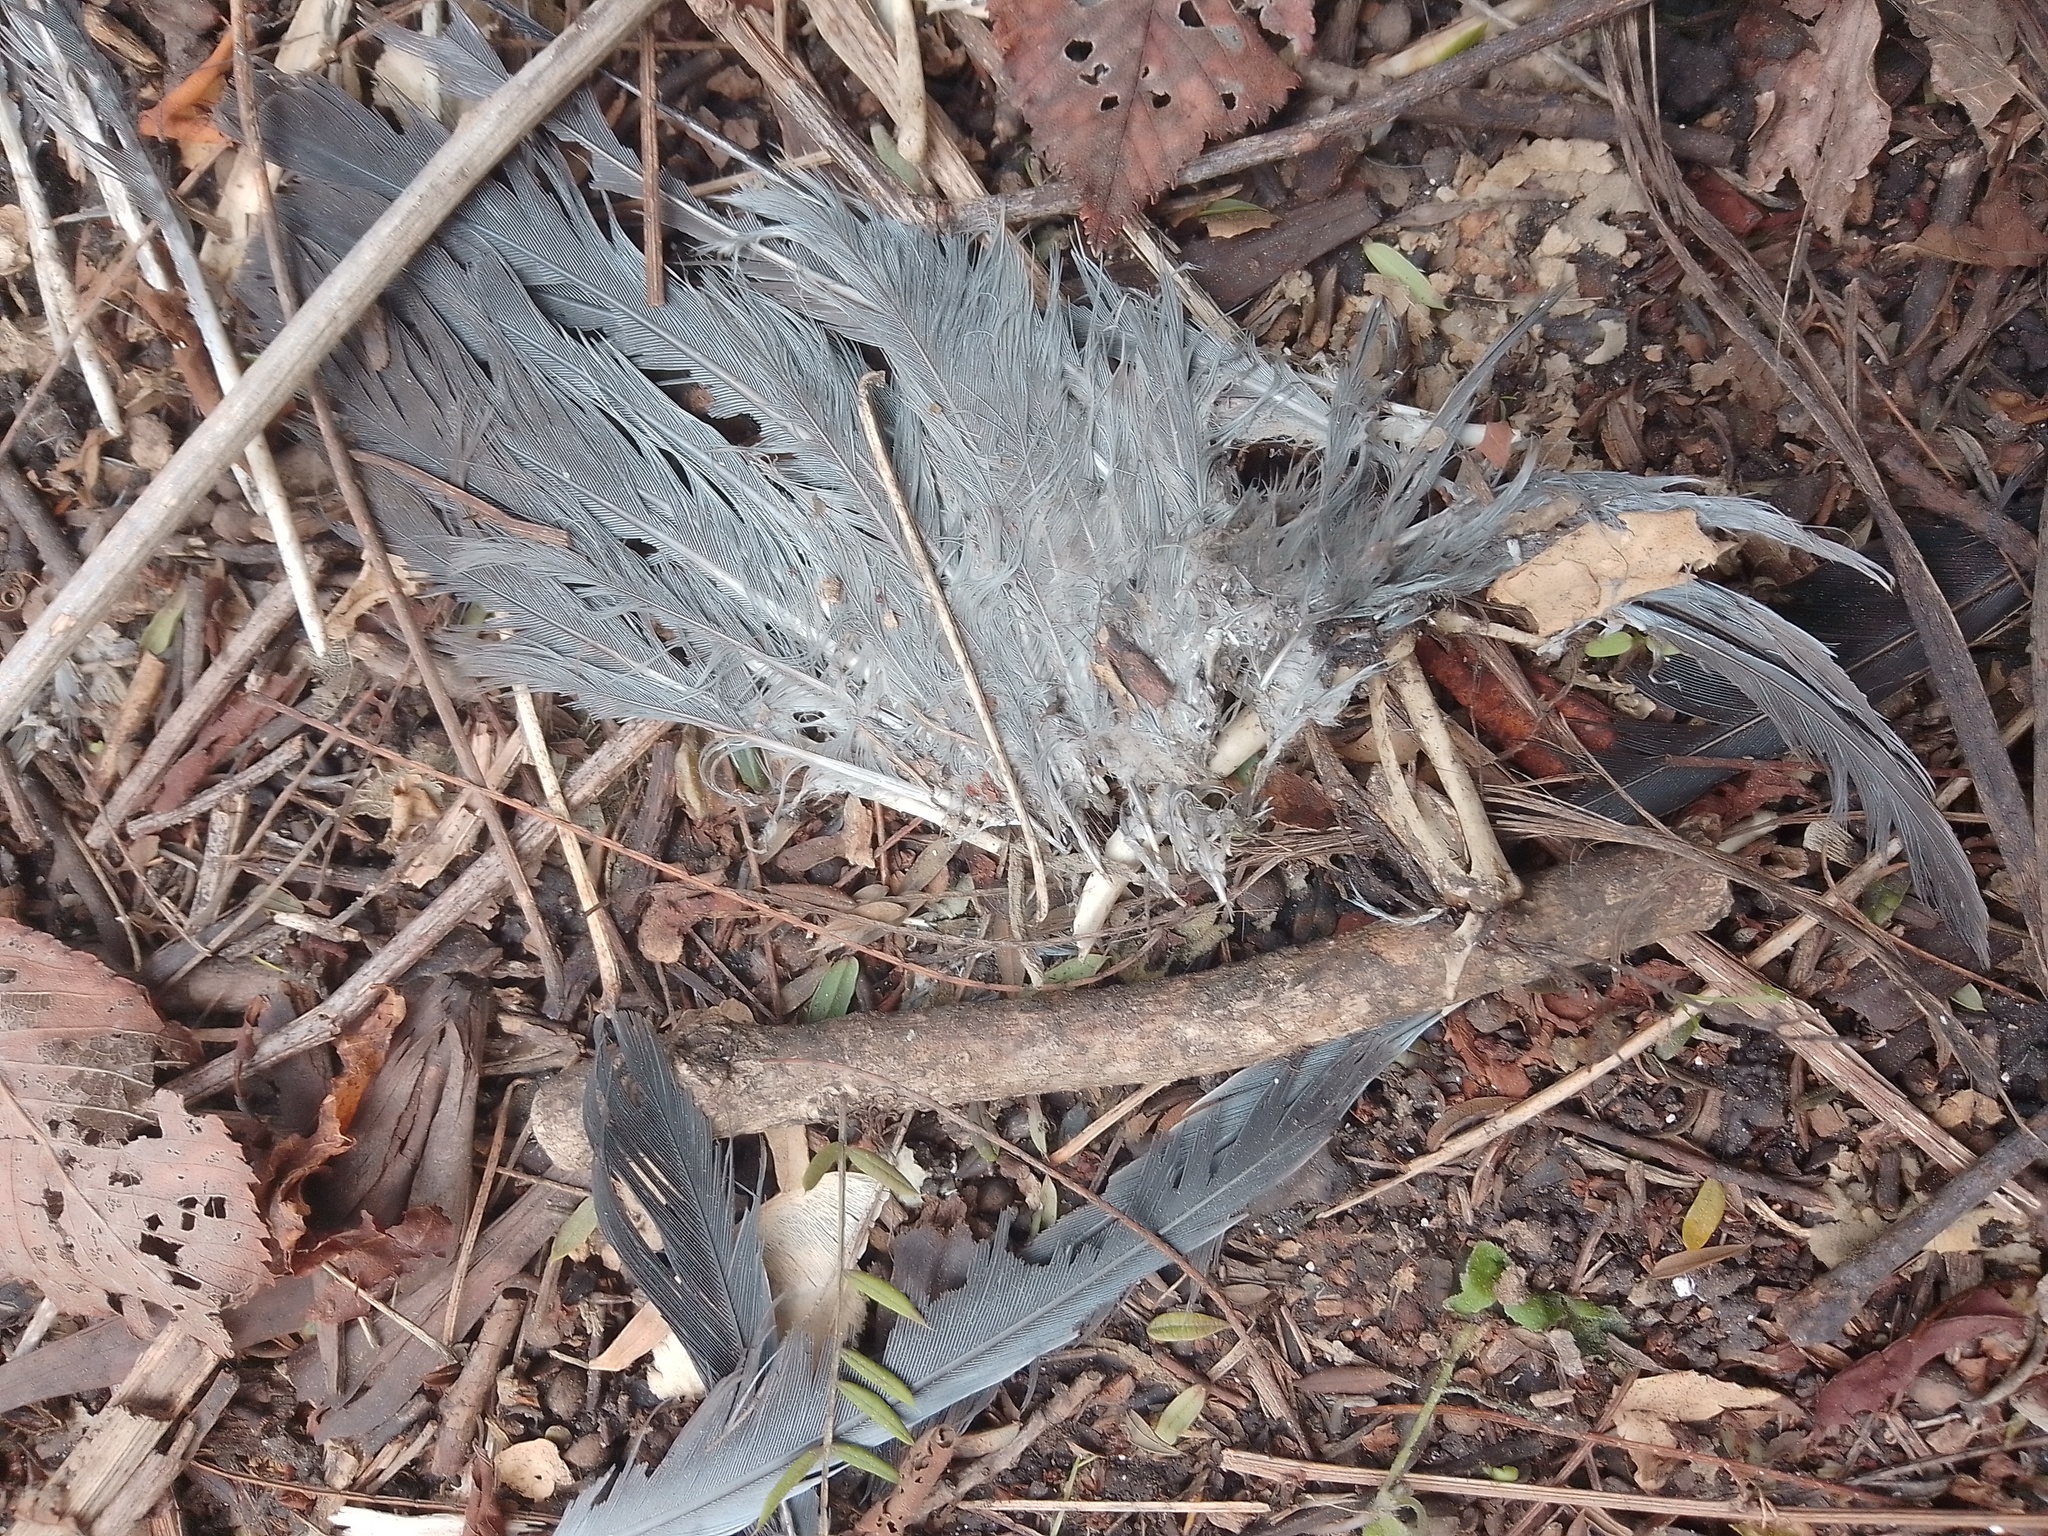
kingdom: Animalia
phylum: Chordata
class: Aves
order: Columbiformes
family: Columbidae
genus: Columba
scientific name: Columba livia
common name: Rock pigeon
